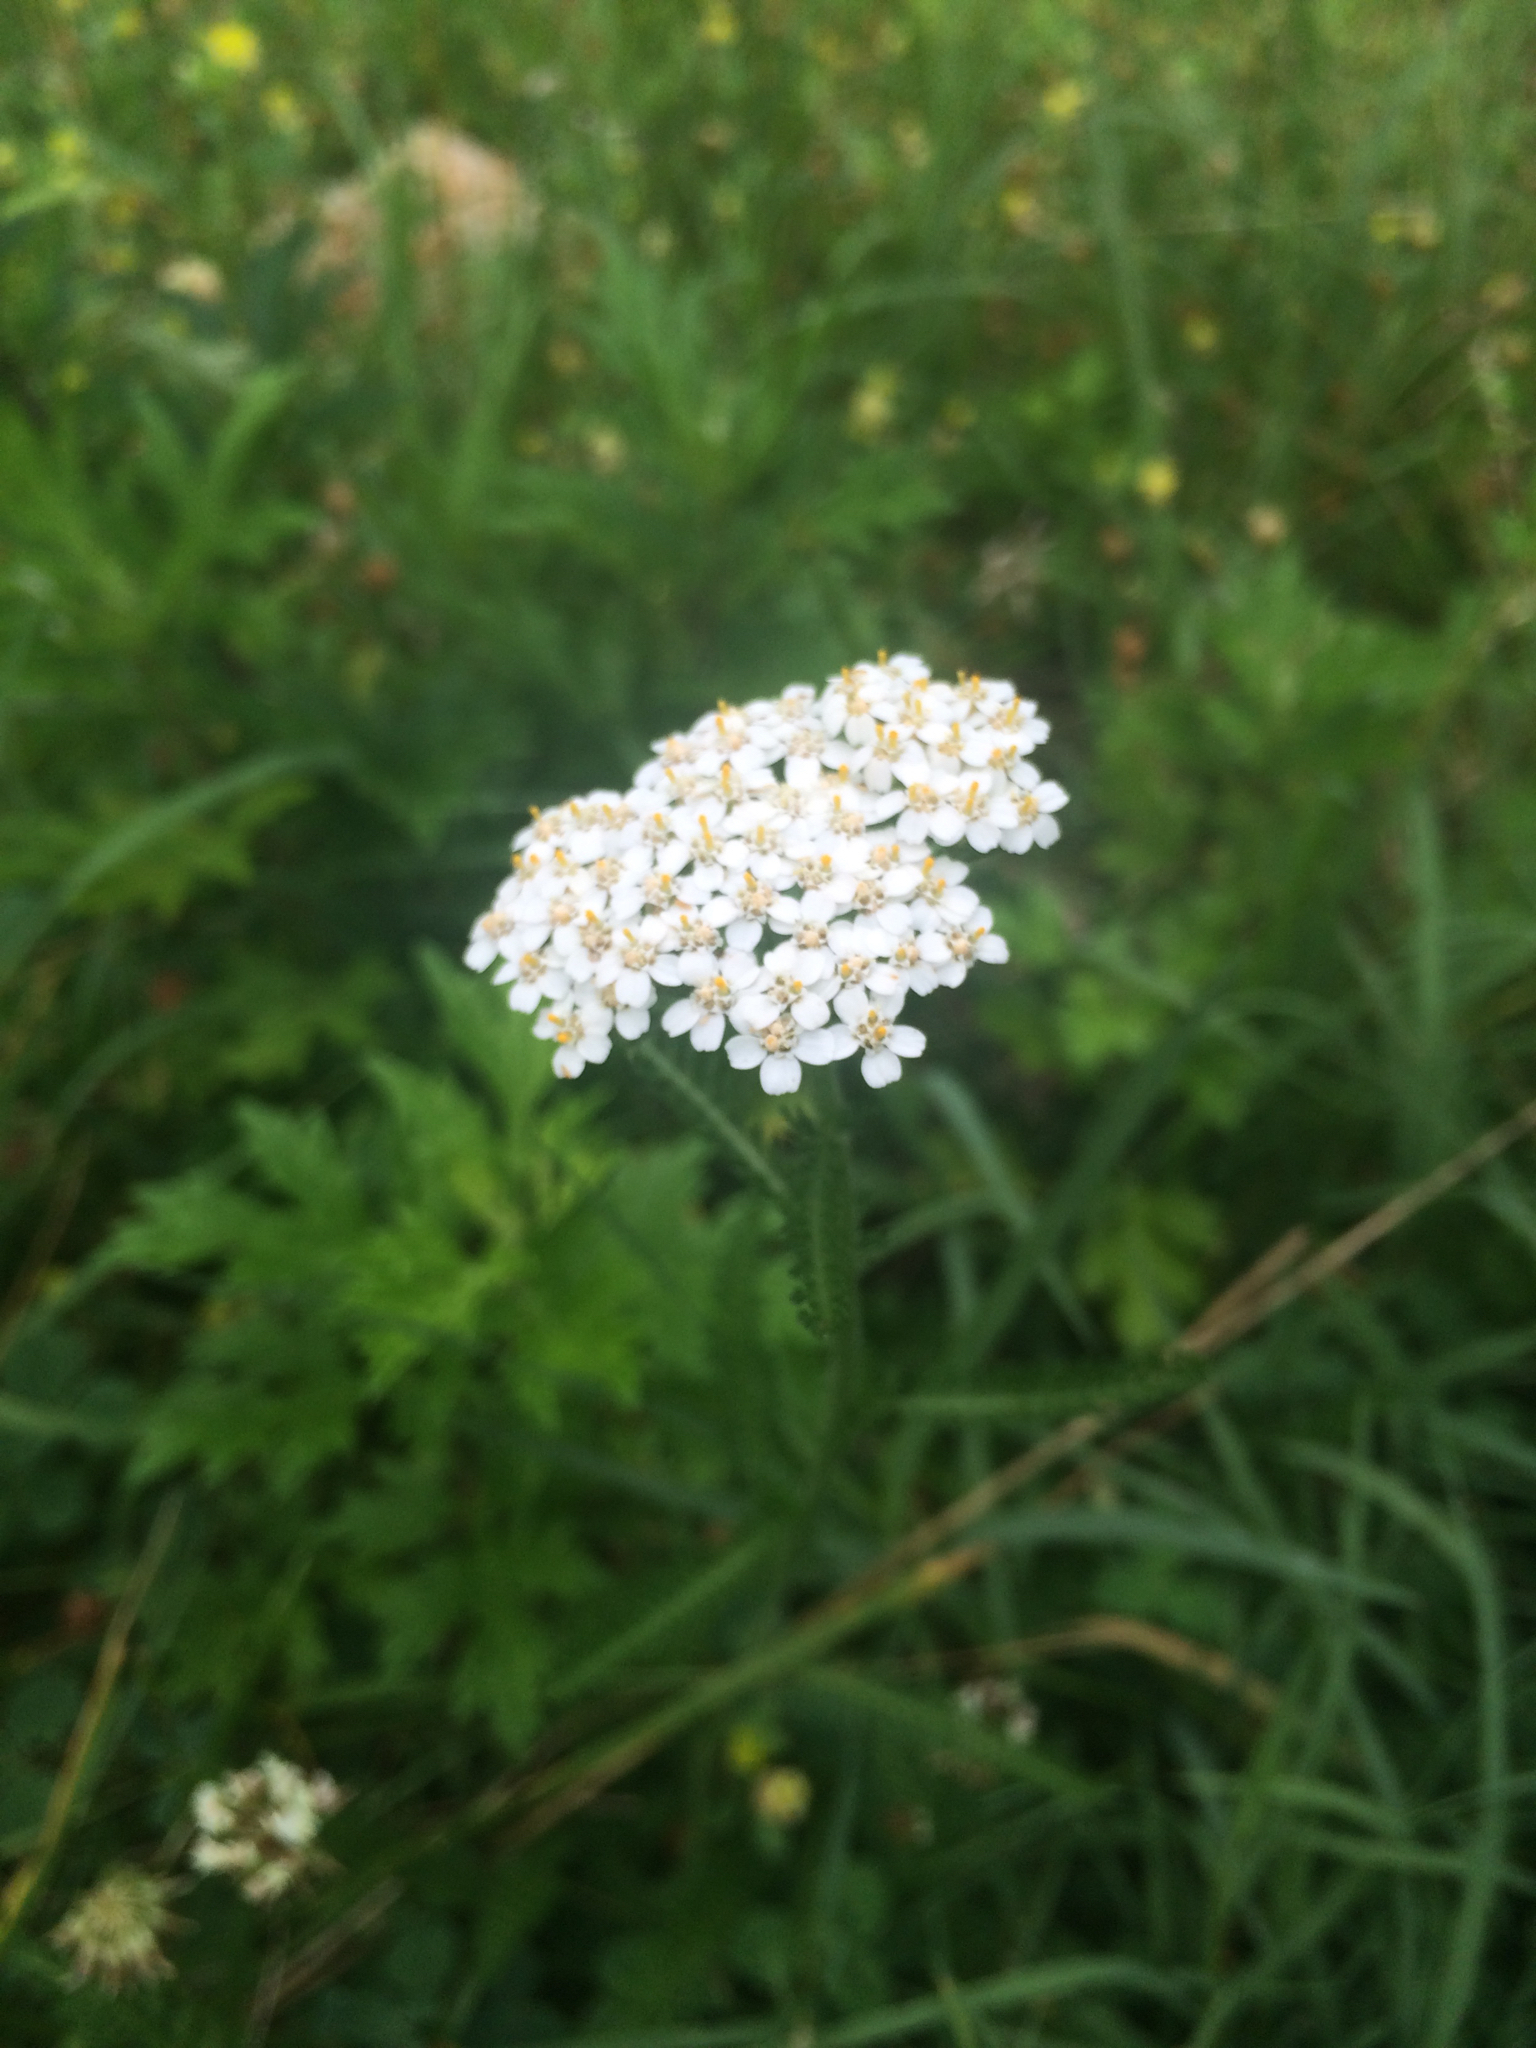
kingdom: Plantae
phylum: Tracheophyta
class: Magnoliopsida
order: Asterales
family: Asteraceae
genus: Achillea
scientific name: Achillea millefolium
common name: Yarrow
